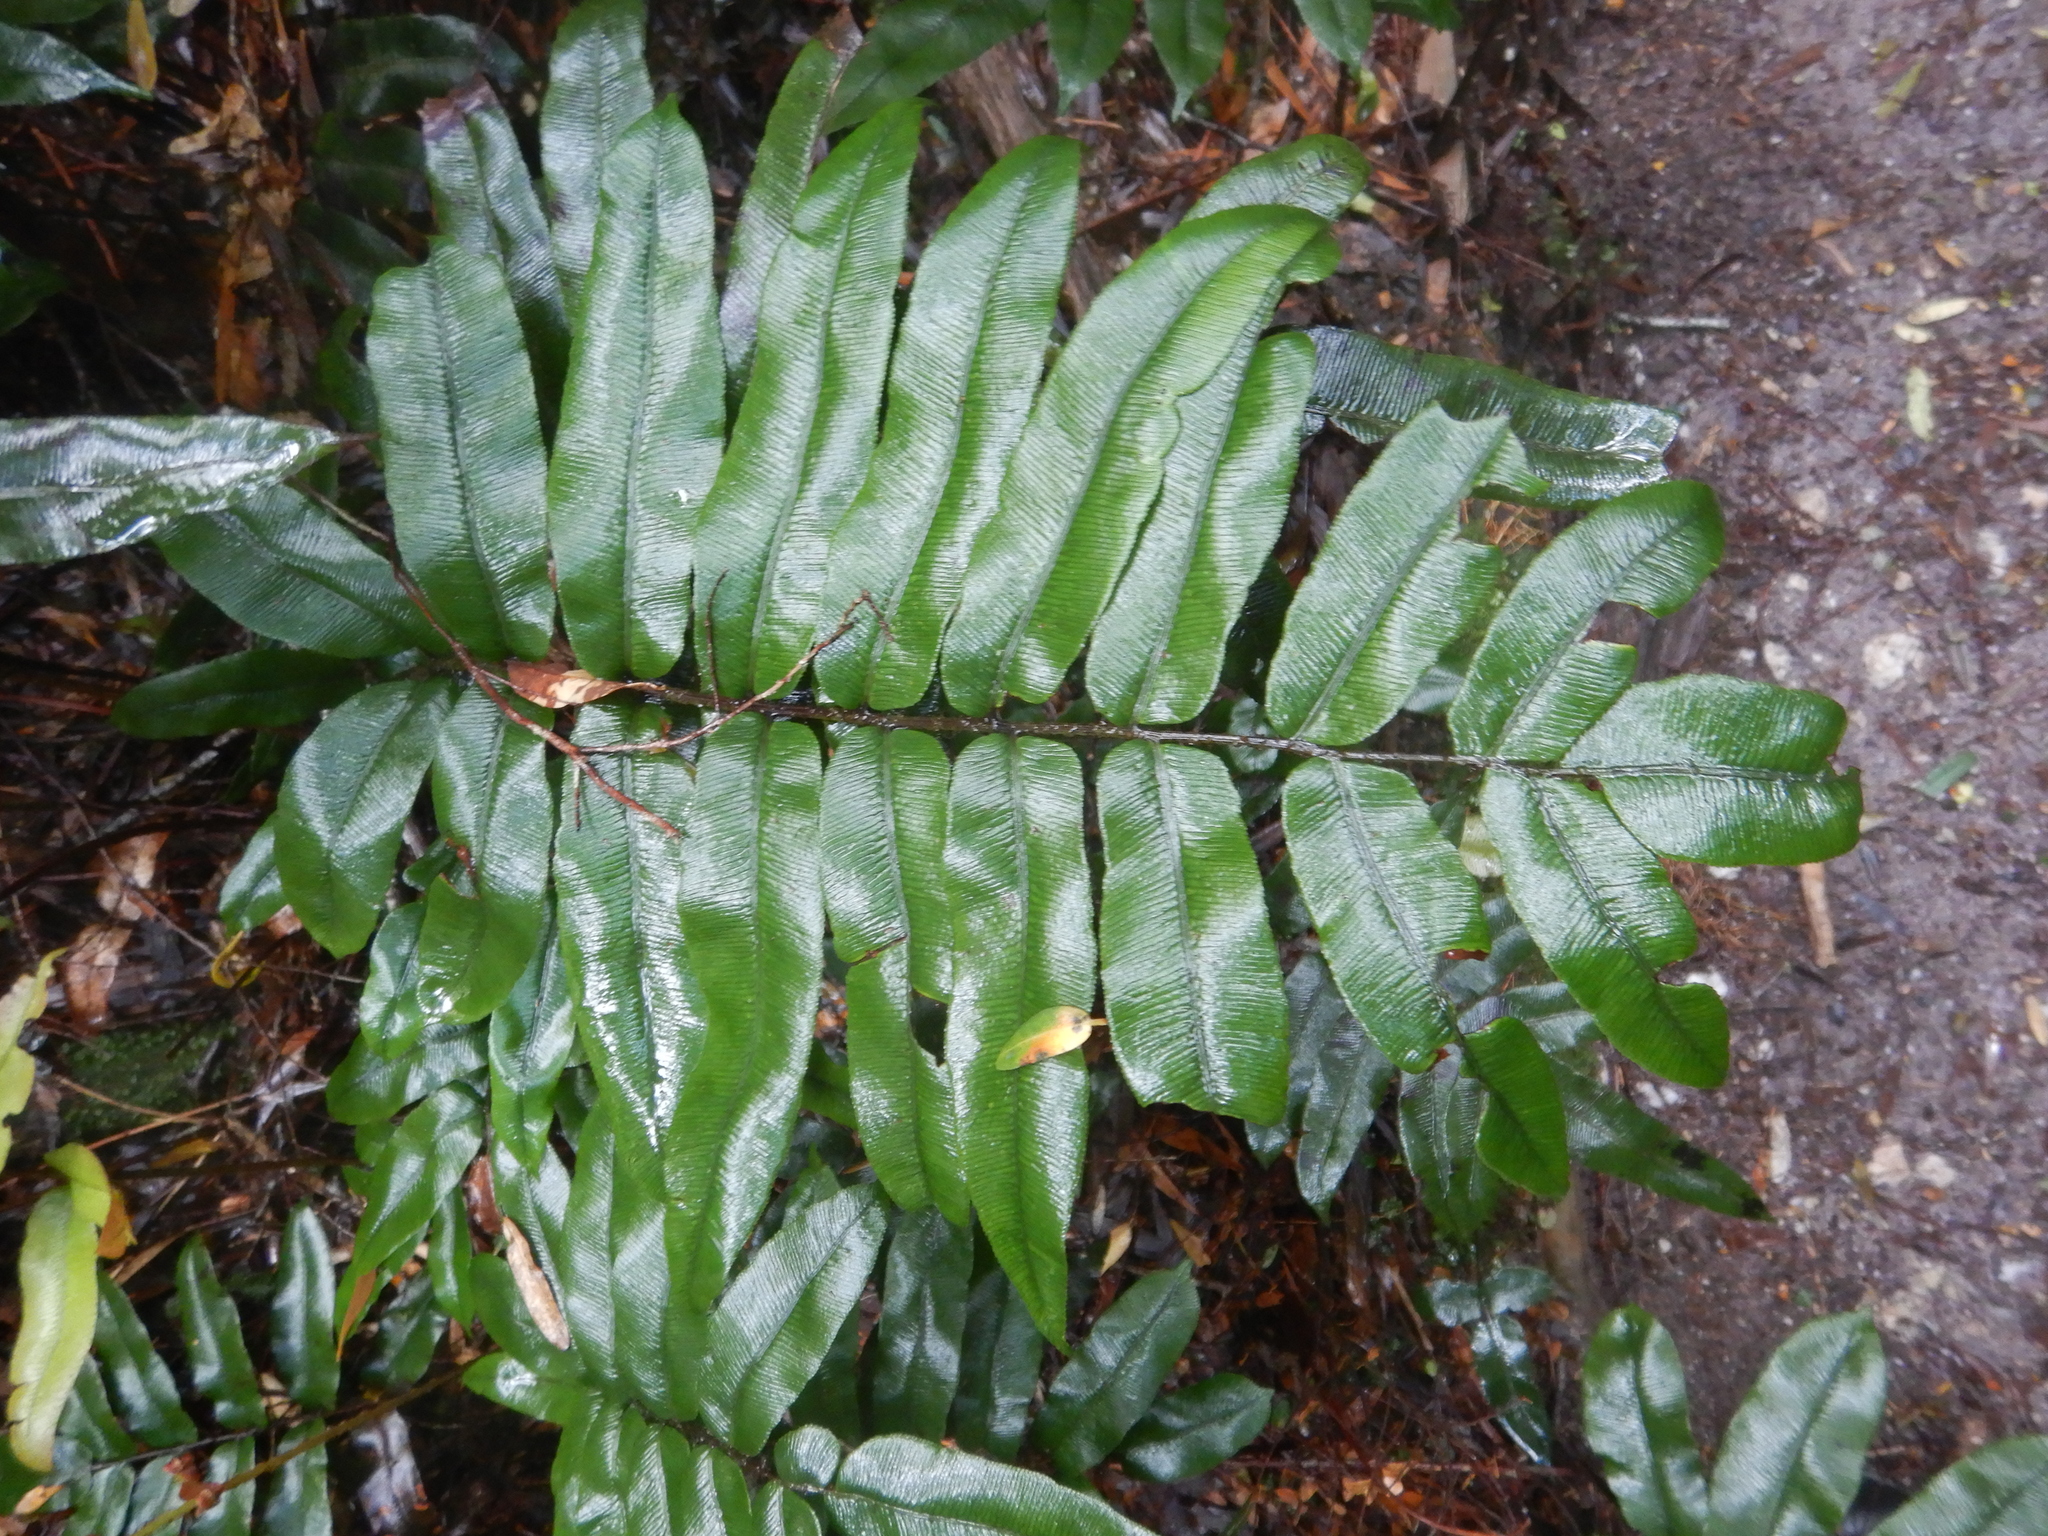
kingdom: Plantae
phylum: Tracheophyta
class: Polypodiopsida
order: Polypodiales
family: Blechnaceae
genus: Parablechnum
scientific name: Parablechnum wattsii
